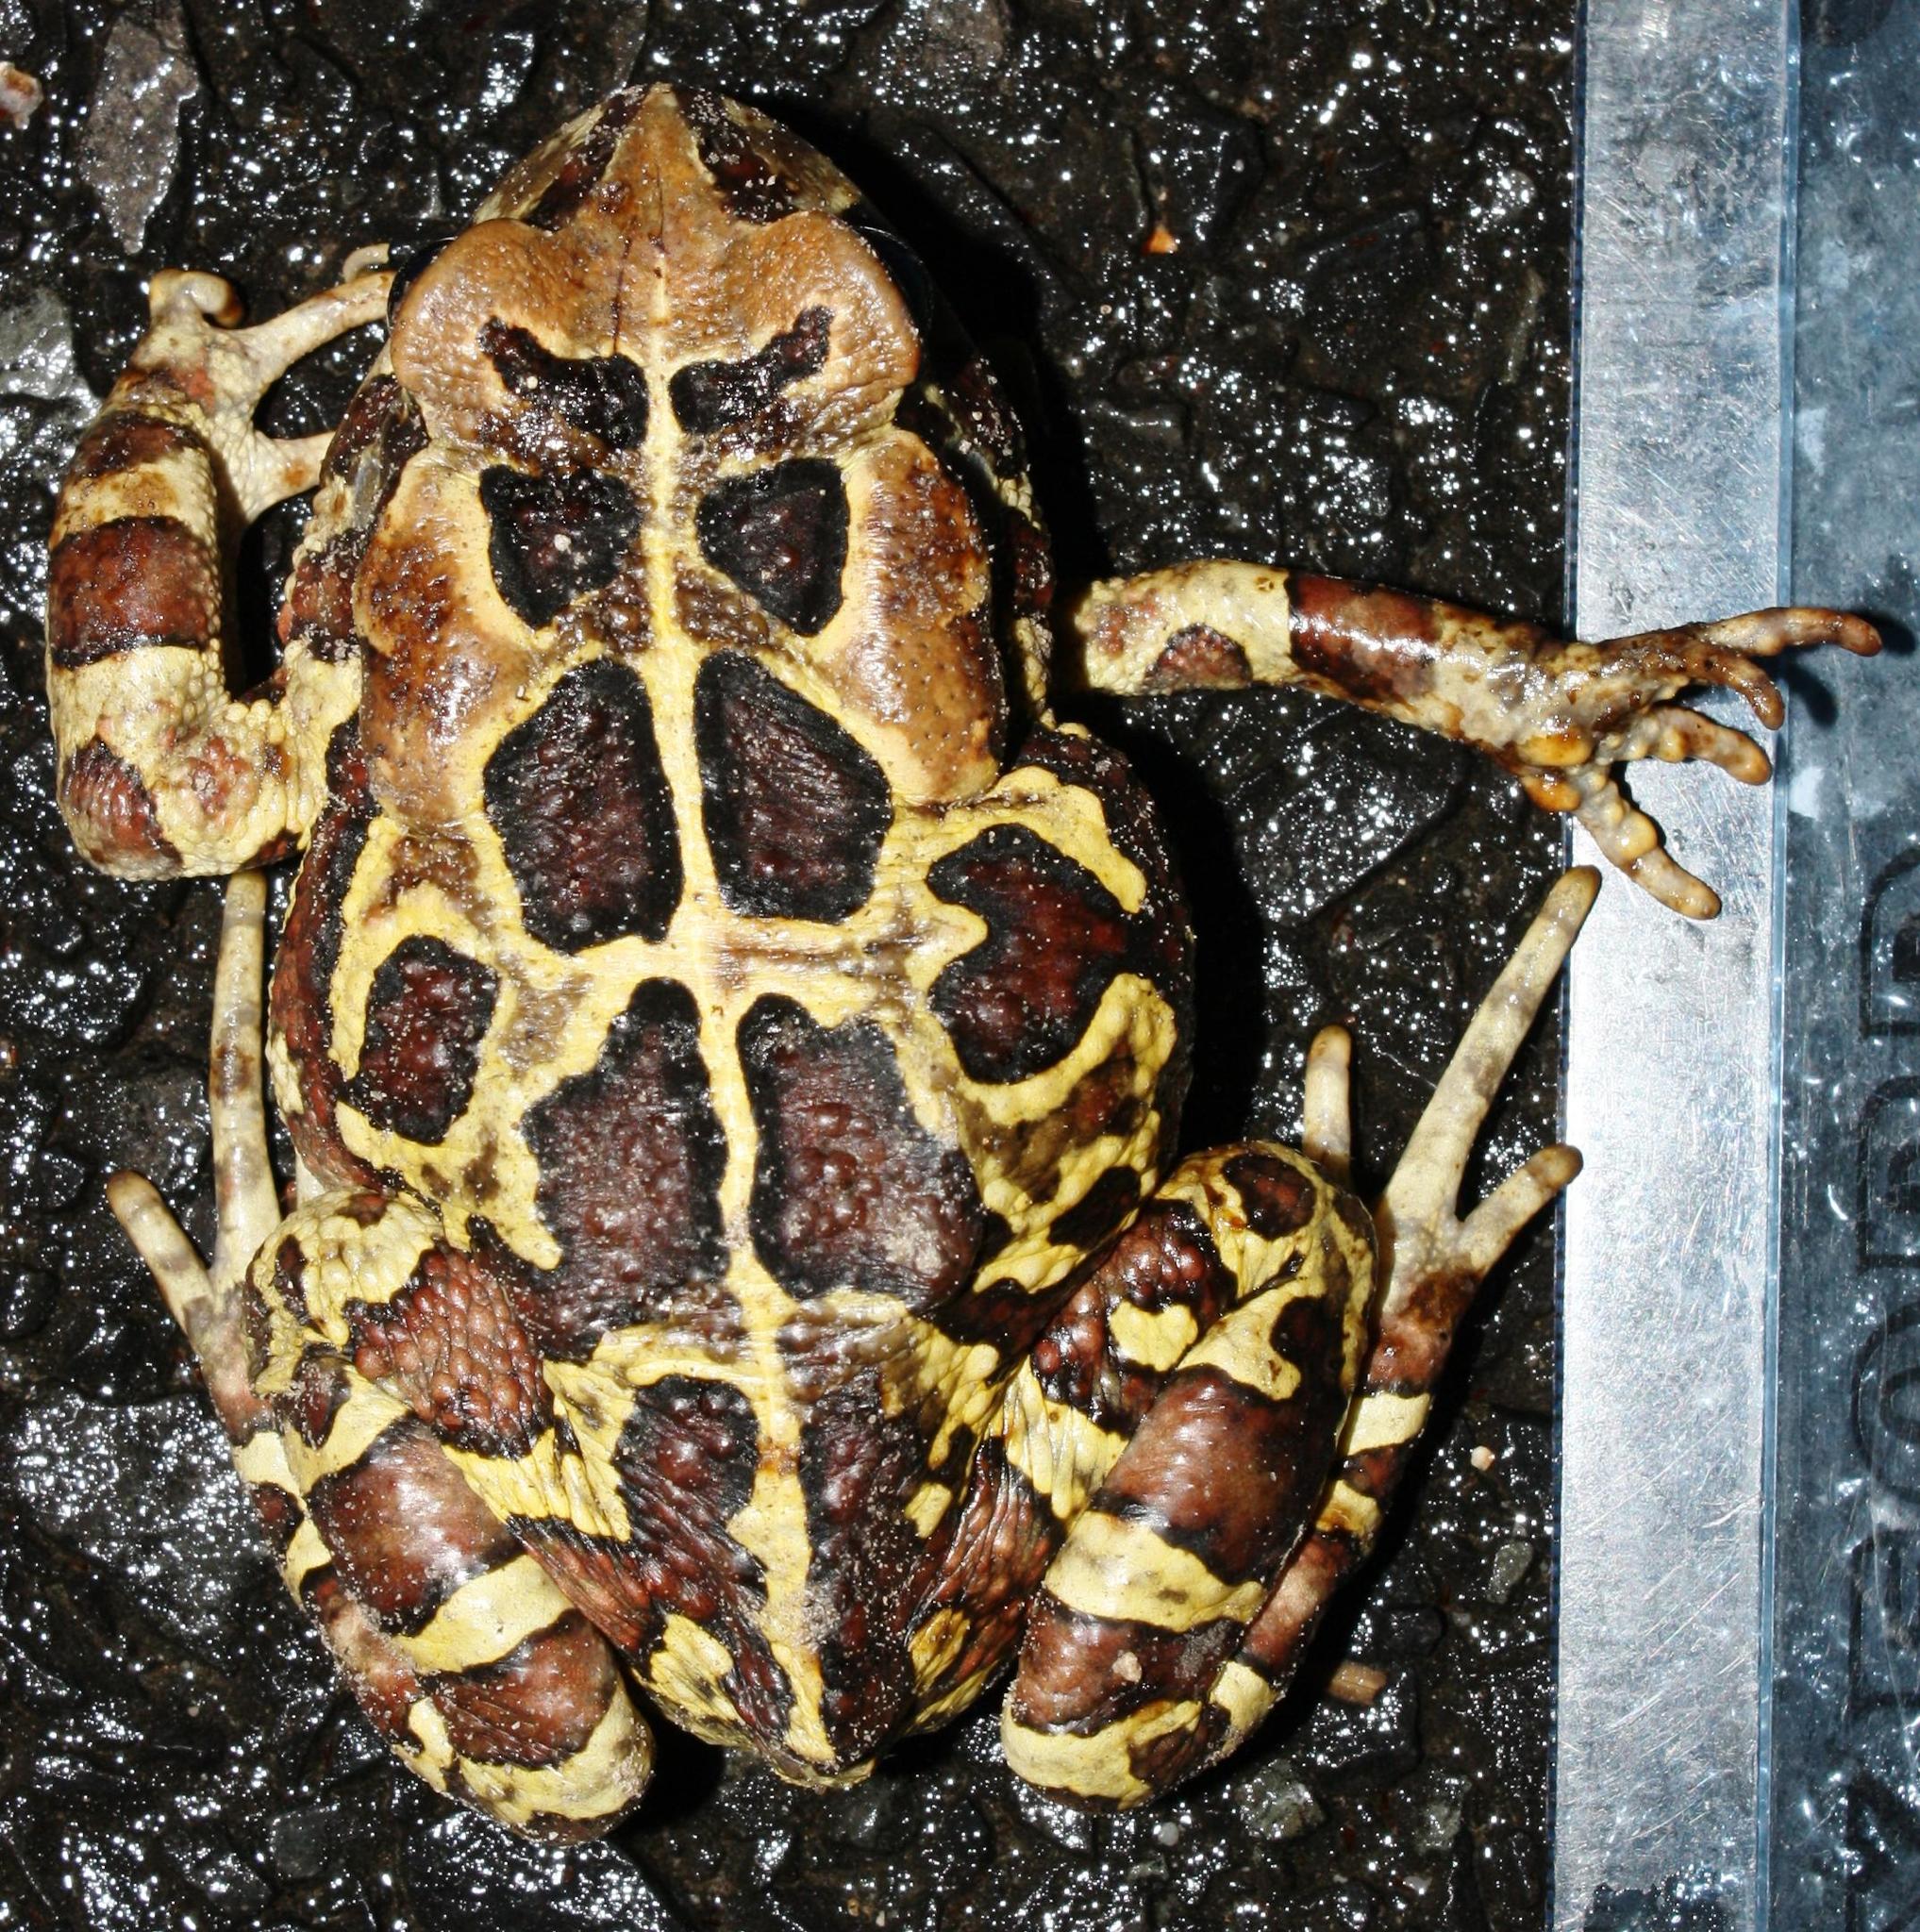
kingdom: Animalia
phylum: Chordata
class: Amphibia
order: Anura
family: Bufonidae
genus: Sclerophrys
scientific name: Sclerophrys pantherina
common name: Panther toad
